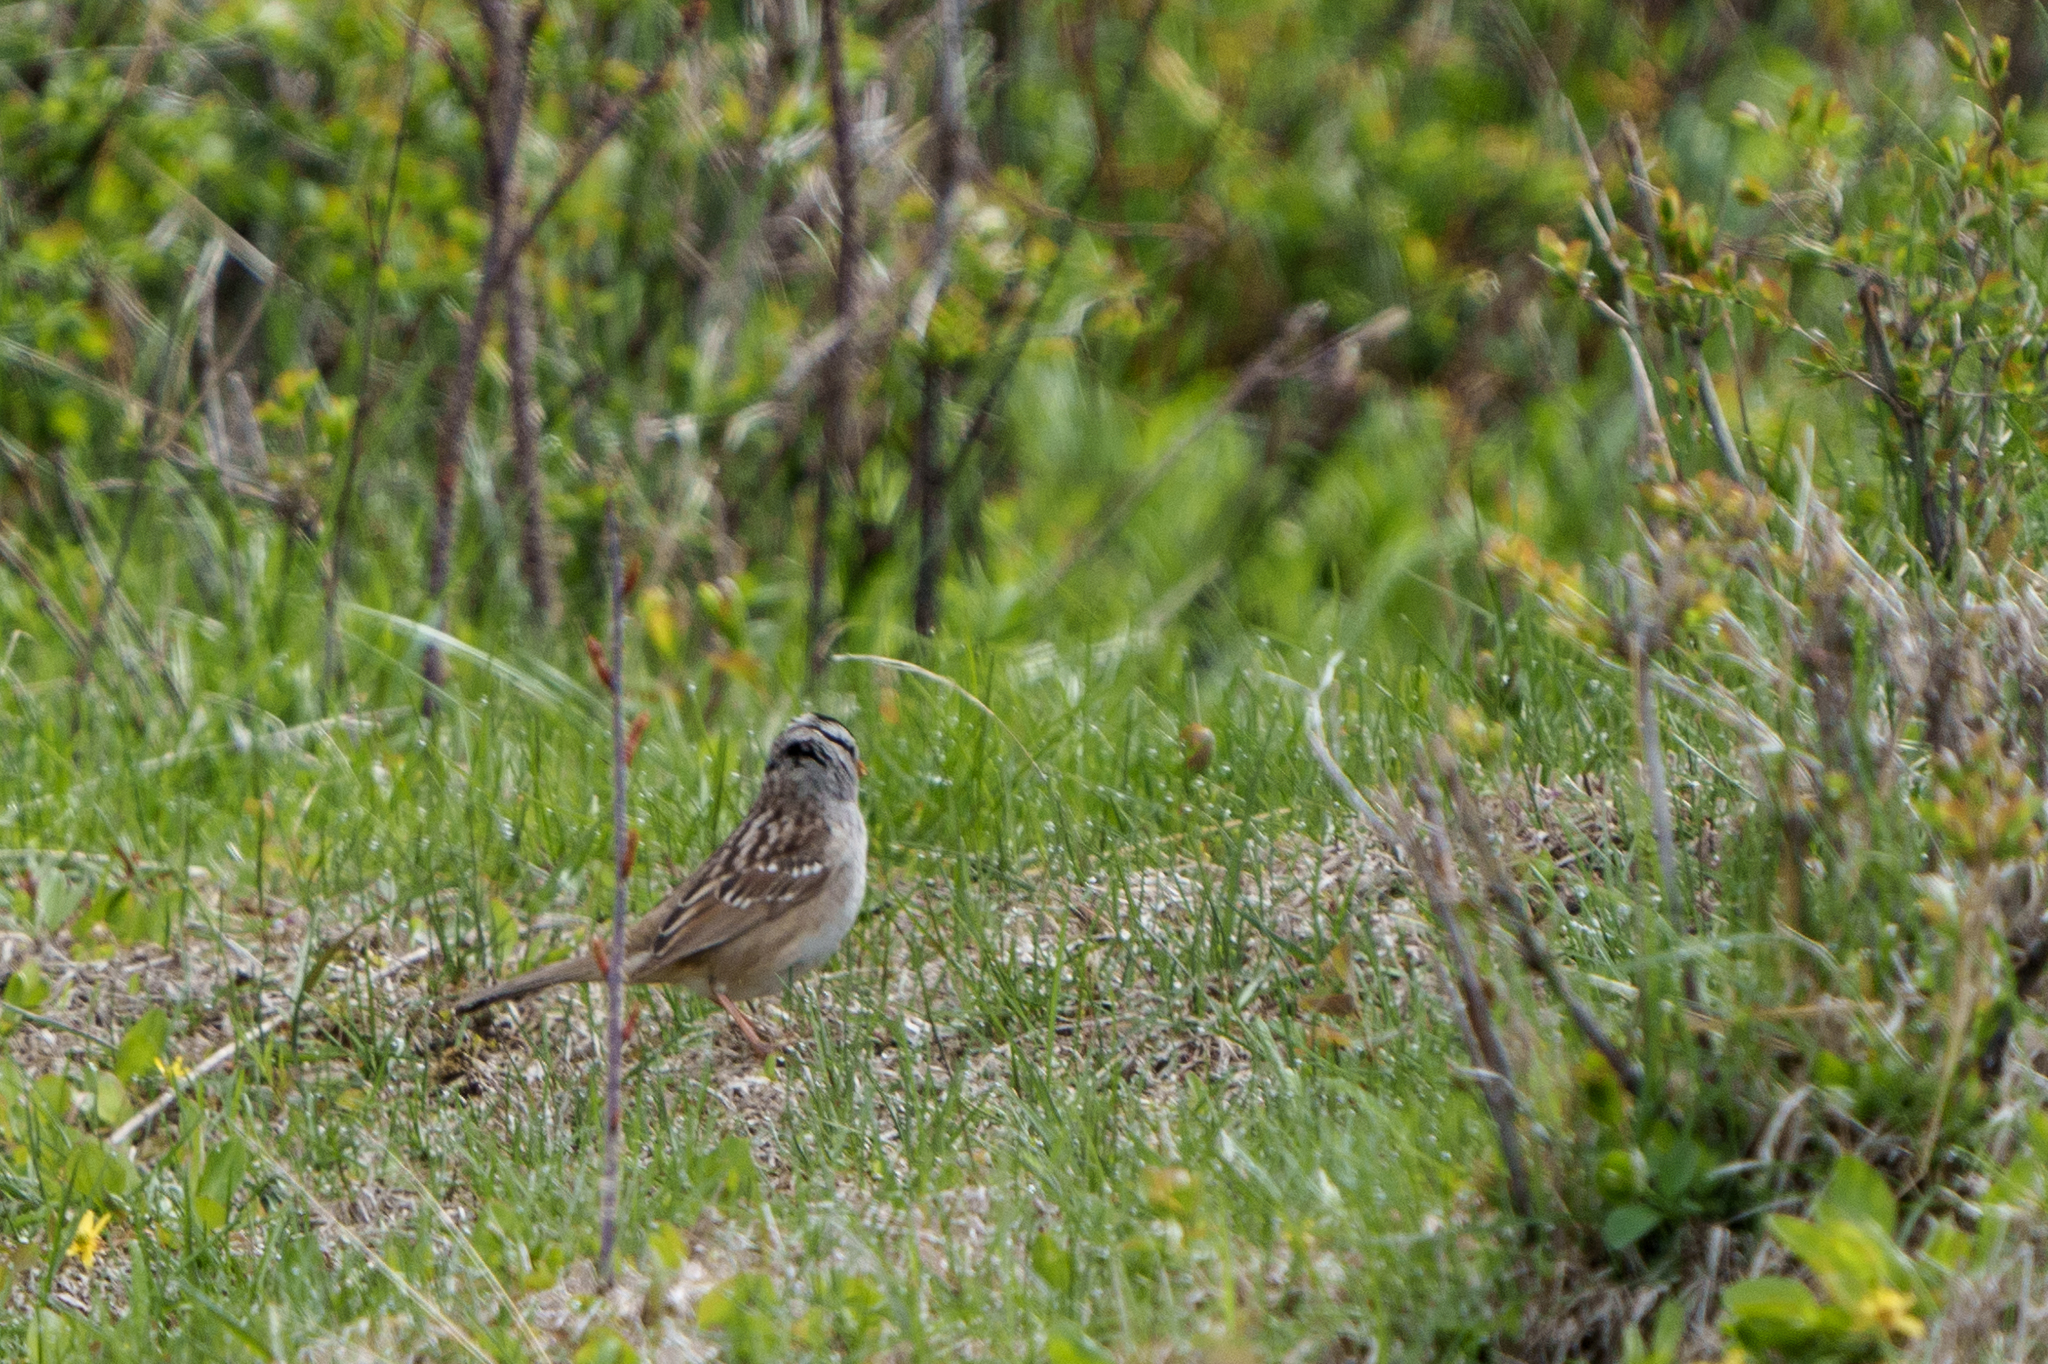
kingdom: Animalia
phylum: Chordata
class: Aves
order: Passeriformes
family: Passerellidae
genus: Zonotrichia
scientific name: Zonotrichia leucophrys
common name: White-crowned sparrow
